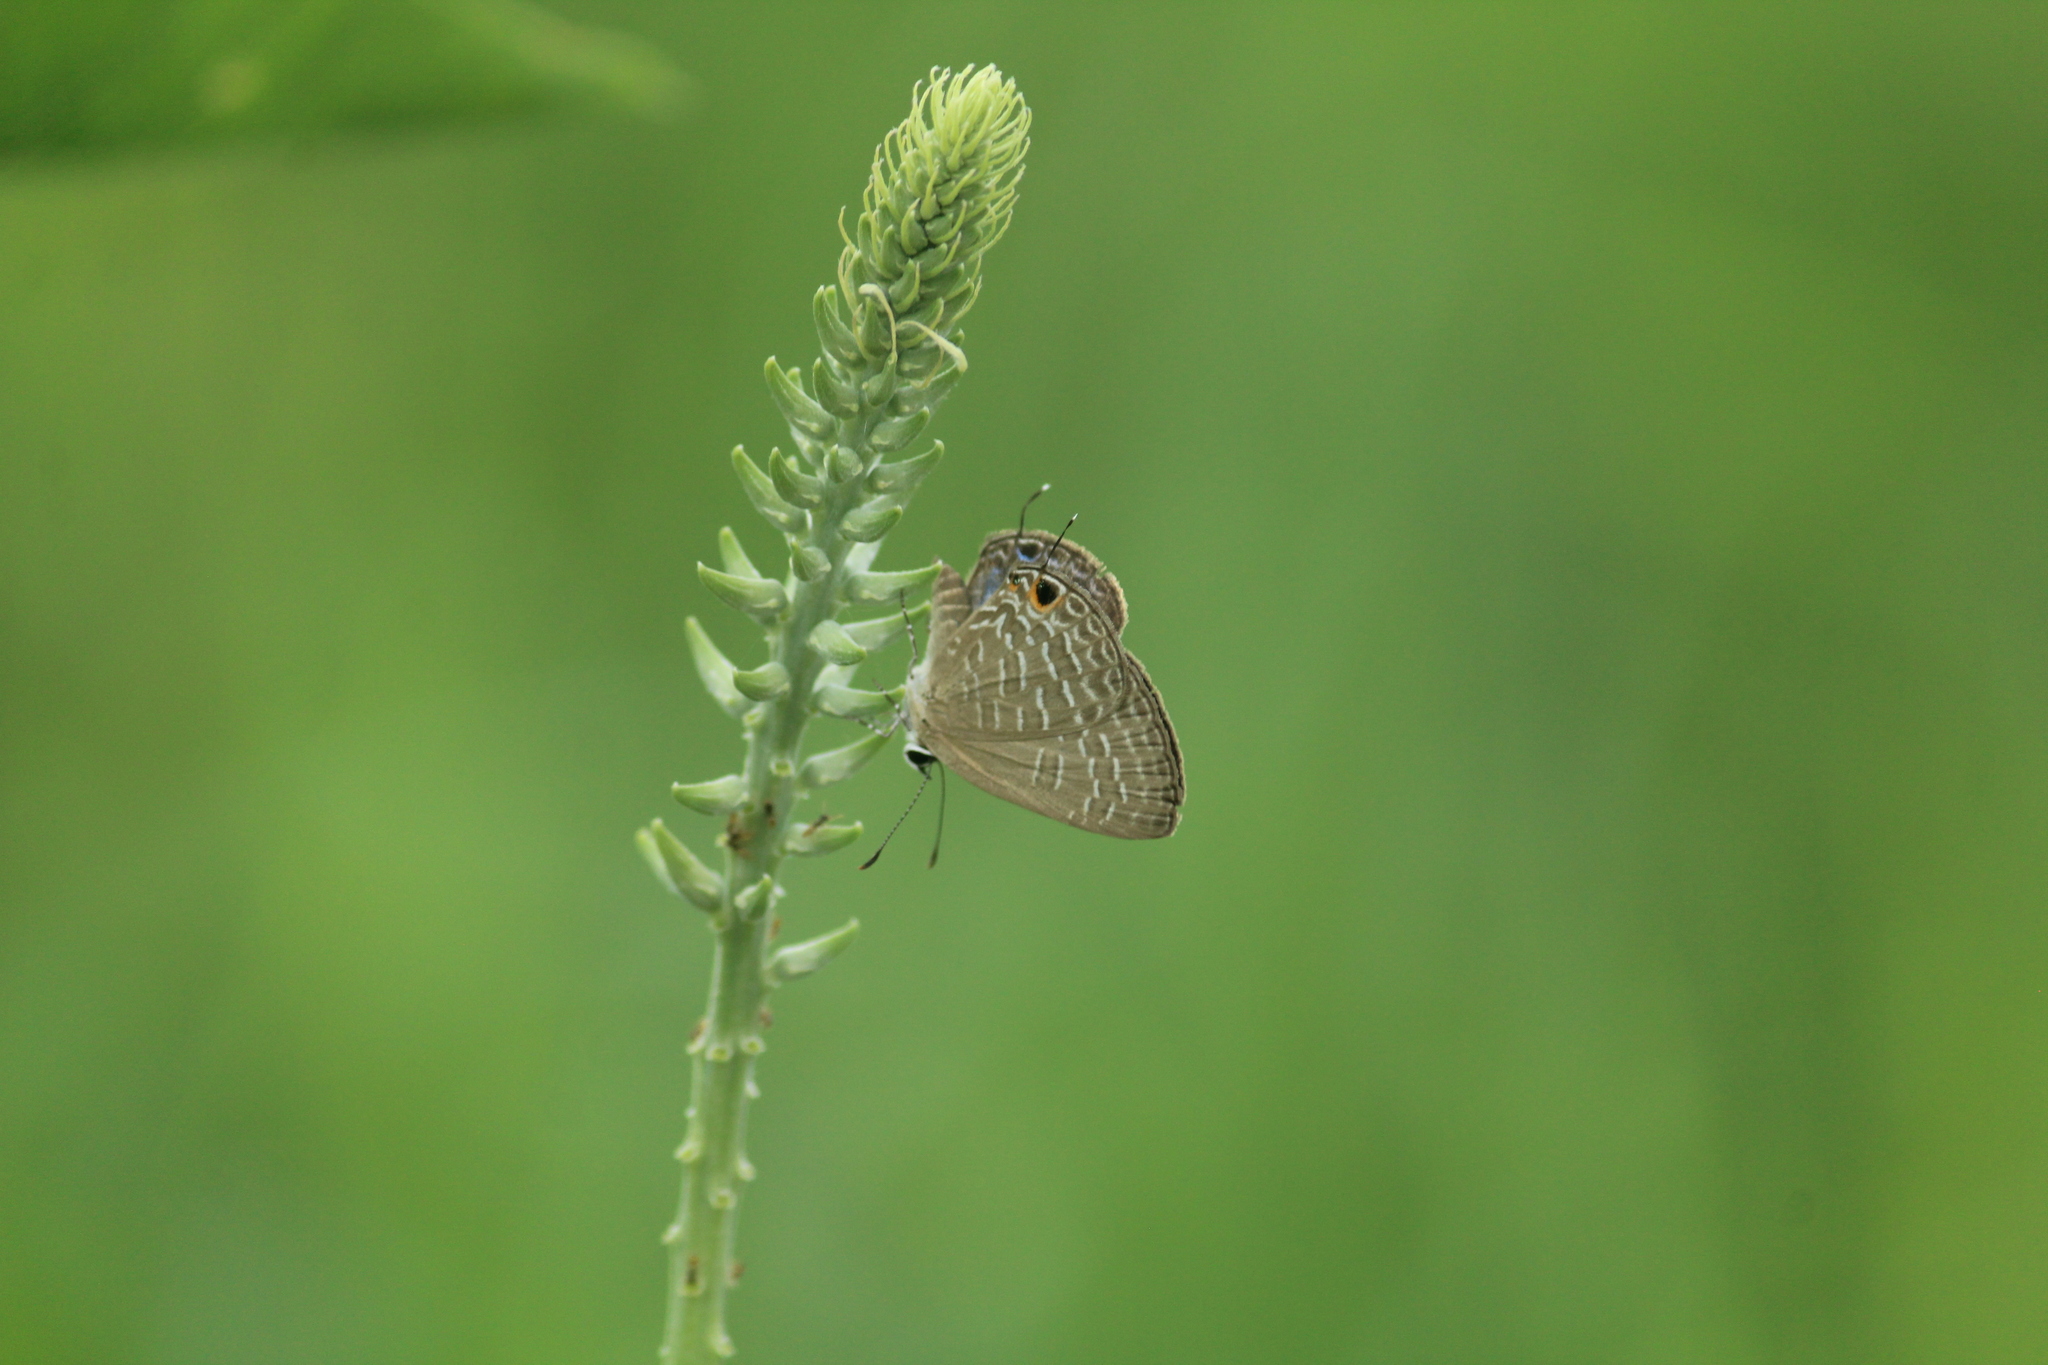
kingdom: Animalia
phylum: Arthropoda
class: Insecta
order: Lepidoptera
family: Lycaenidae
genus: Jamides
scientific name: Jamides bochus
